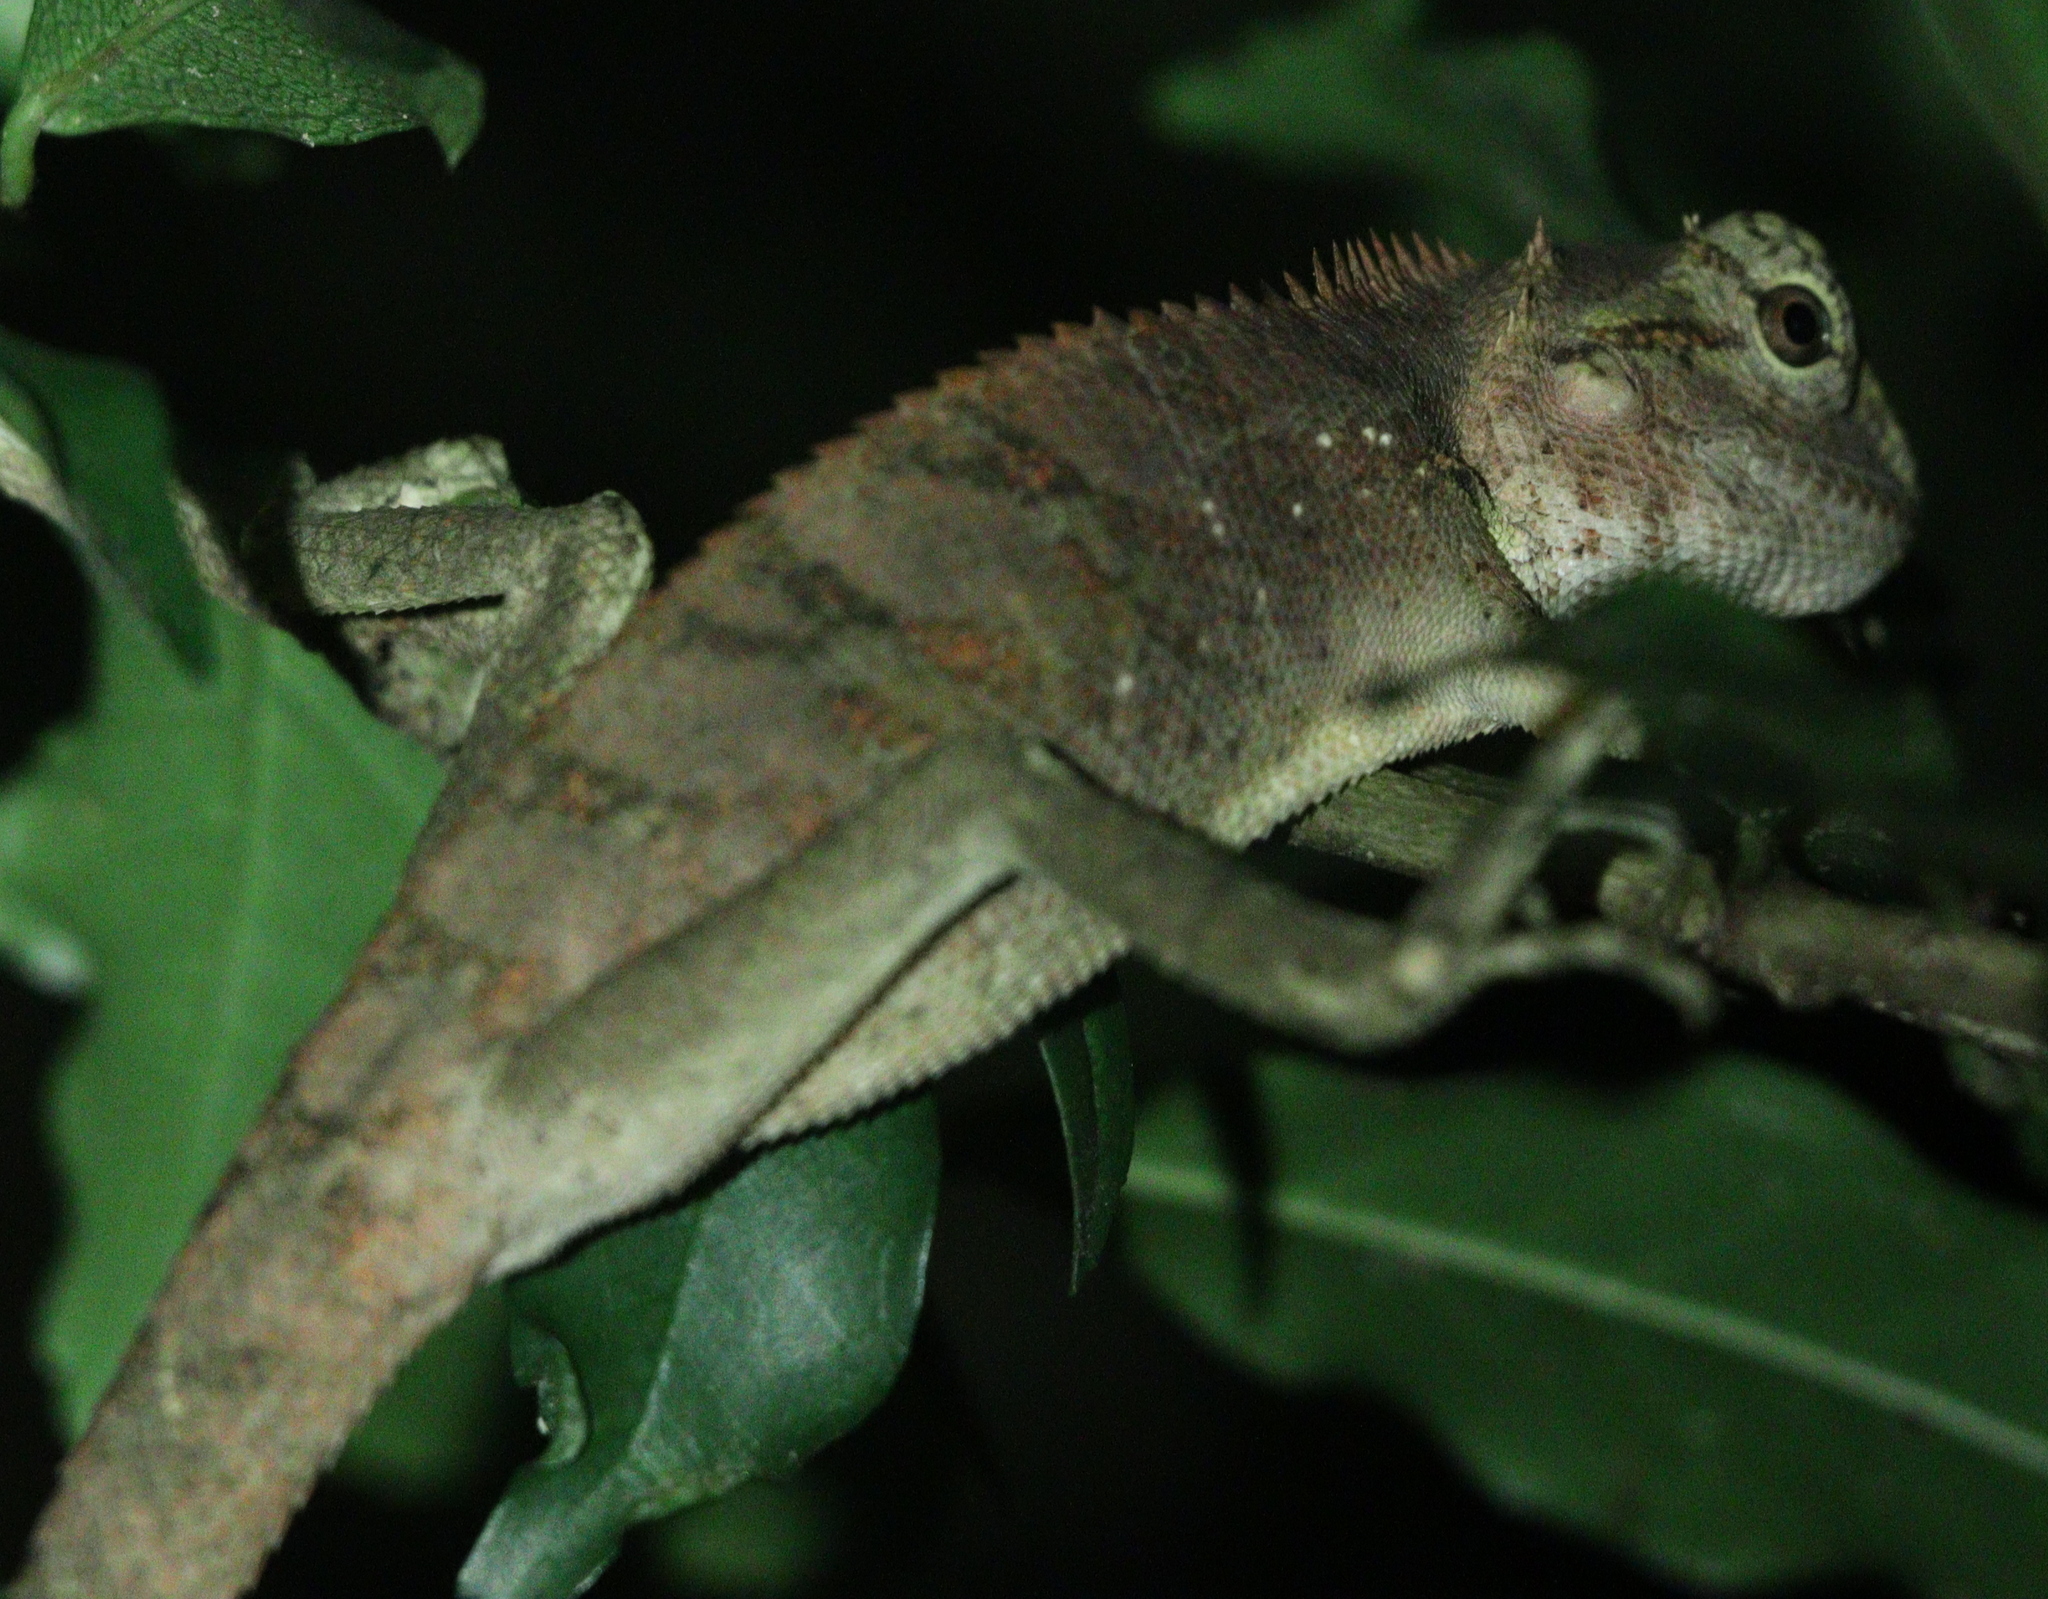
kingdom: Animalia
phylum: Chordata
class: Squamata
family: Agamidae
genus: Calotes
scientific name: Calotes emma
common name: Thailand bloodsucker
